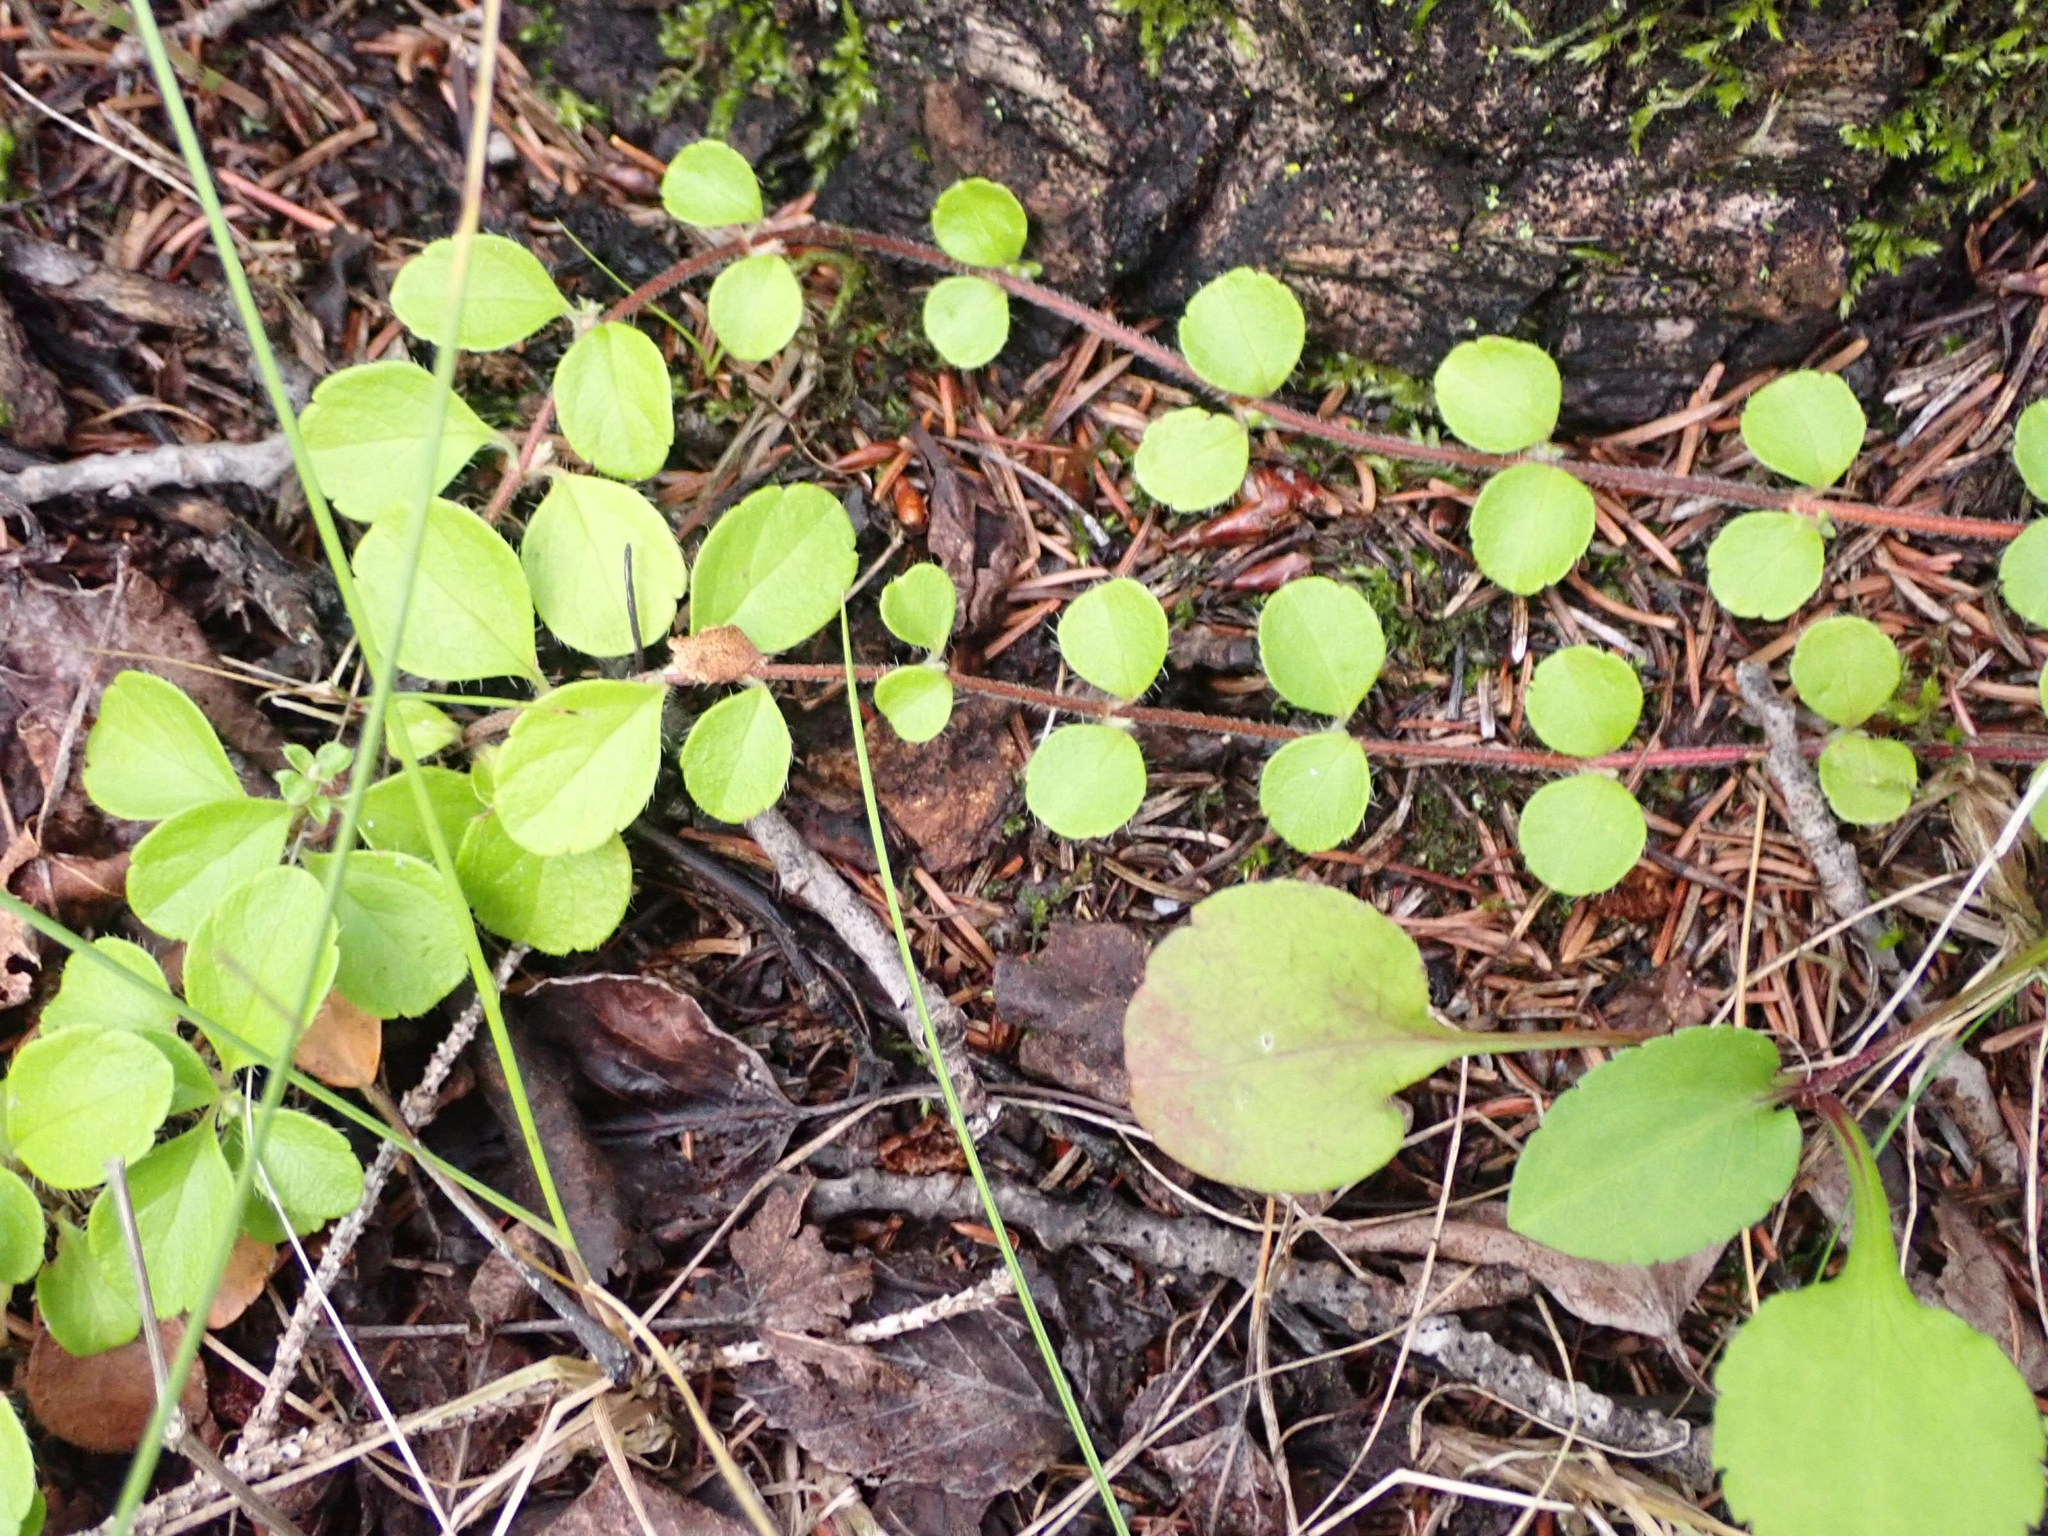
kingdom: Plantae
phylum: Tracheophyta
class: Magnoliopsida
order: Dipsacales
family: Caprifoliaceae
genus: Linnaea
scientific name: Linnaea borealis
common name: Twinflower
